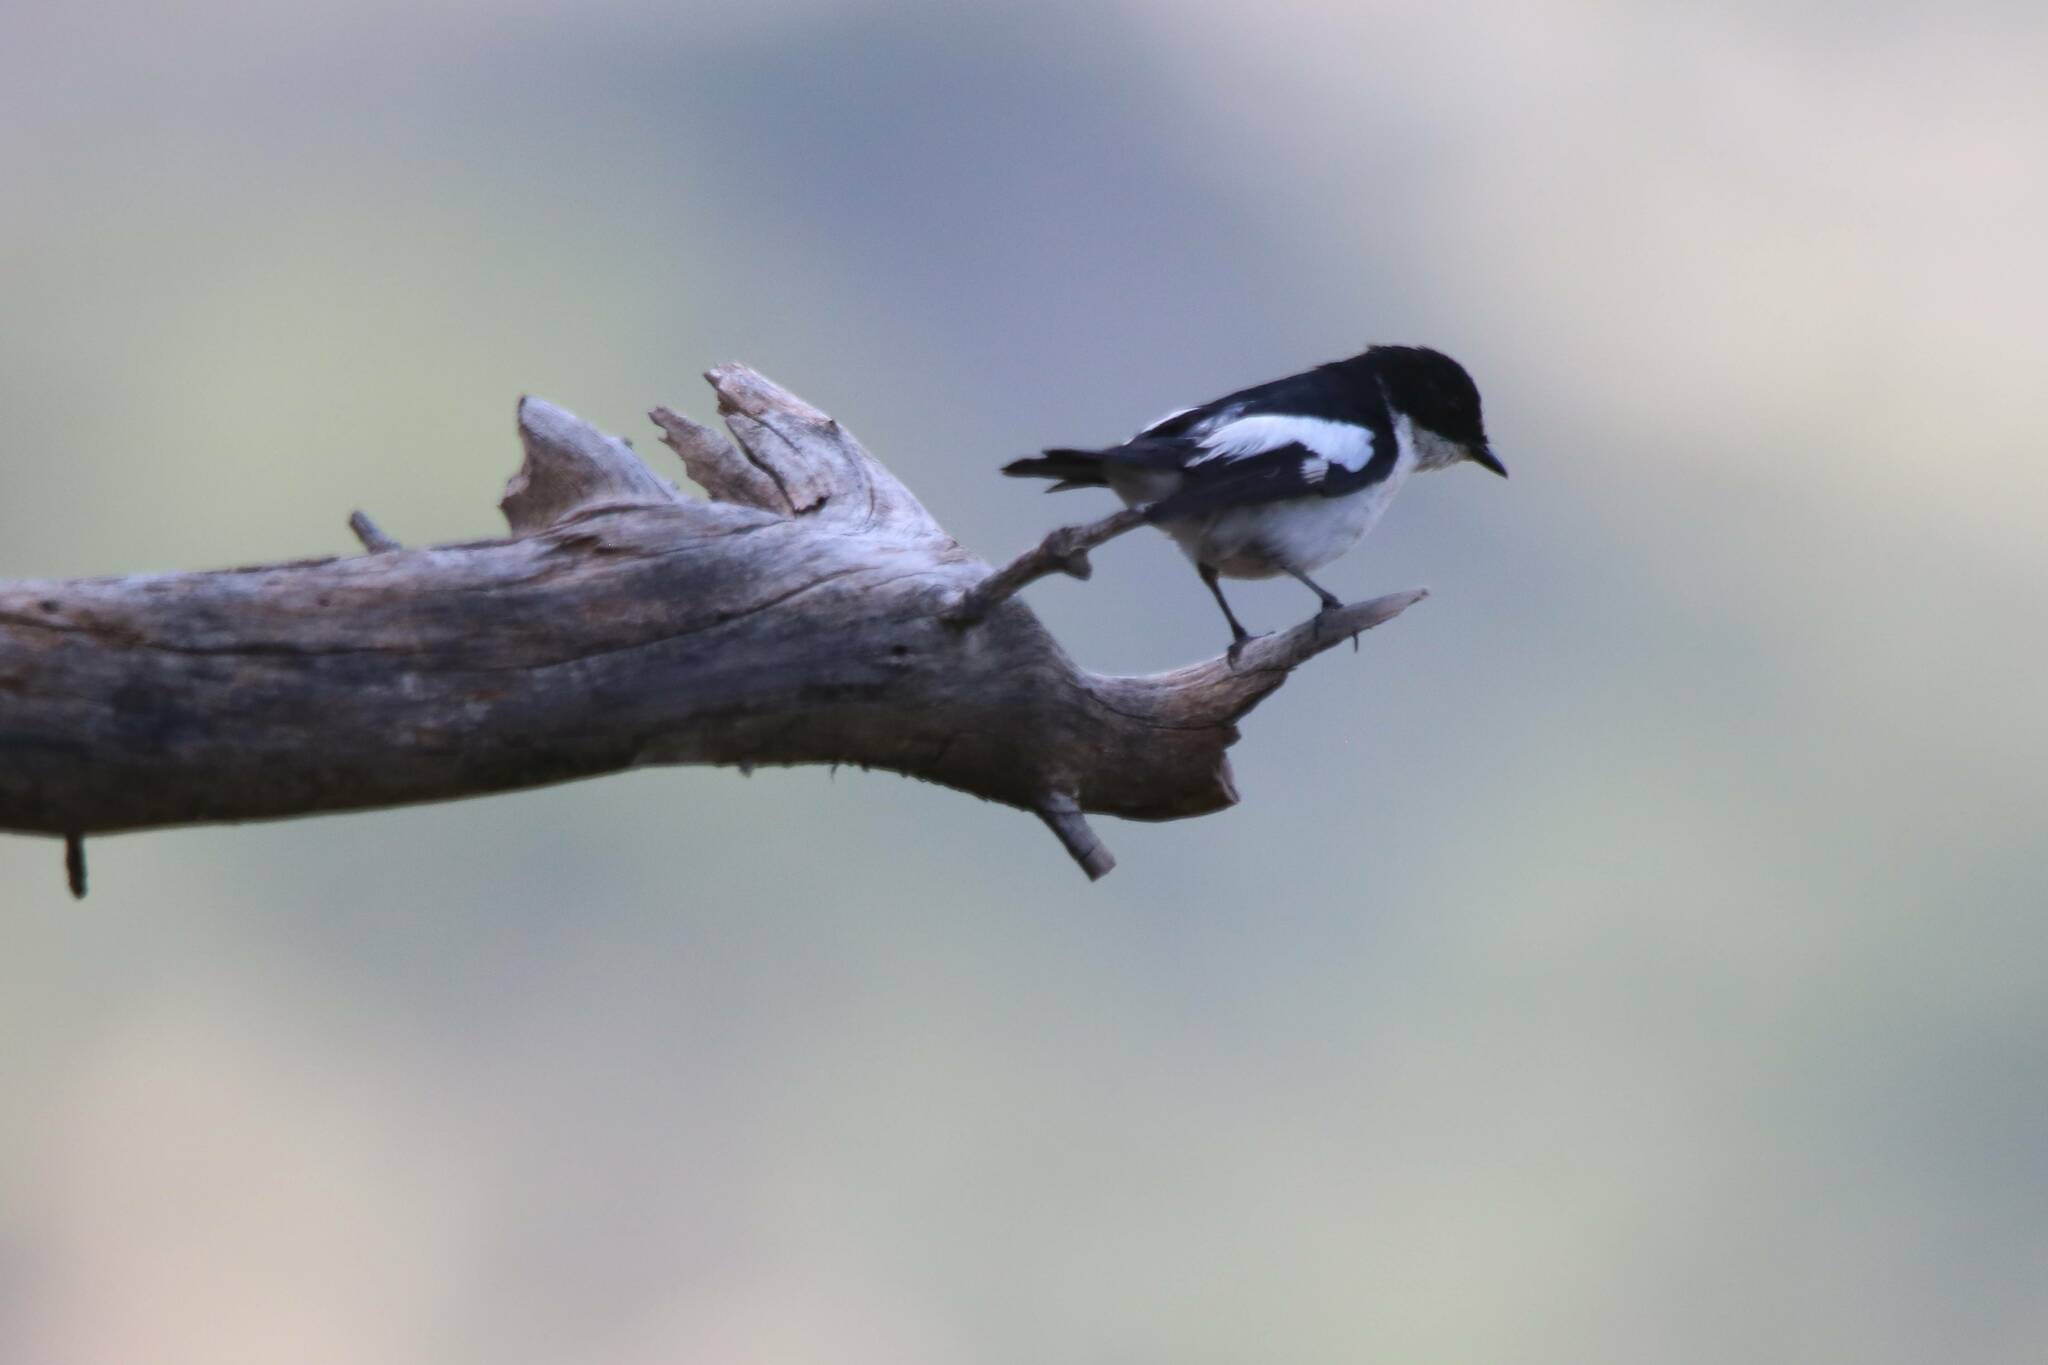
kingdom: Animalia
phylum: Chordata
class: Aves
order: Passeriformes
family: Muscicapidae
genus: Ficedula
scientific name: Ficedula speculigera
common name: Atlas pied flycatcher
